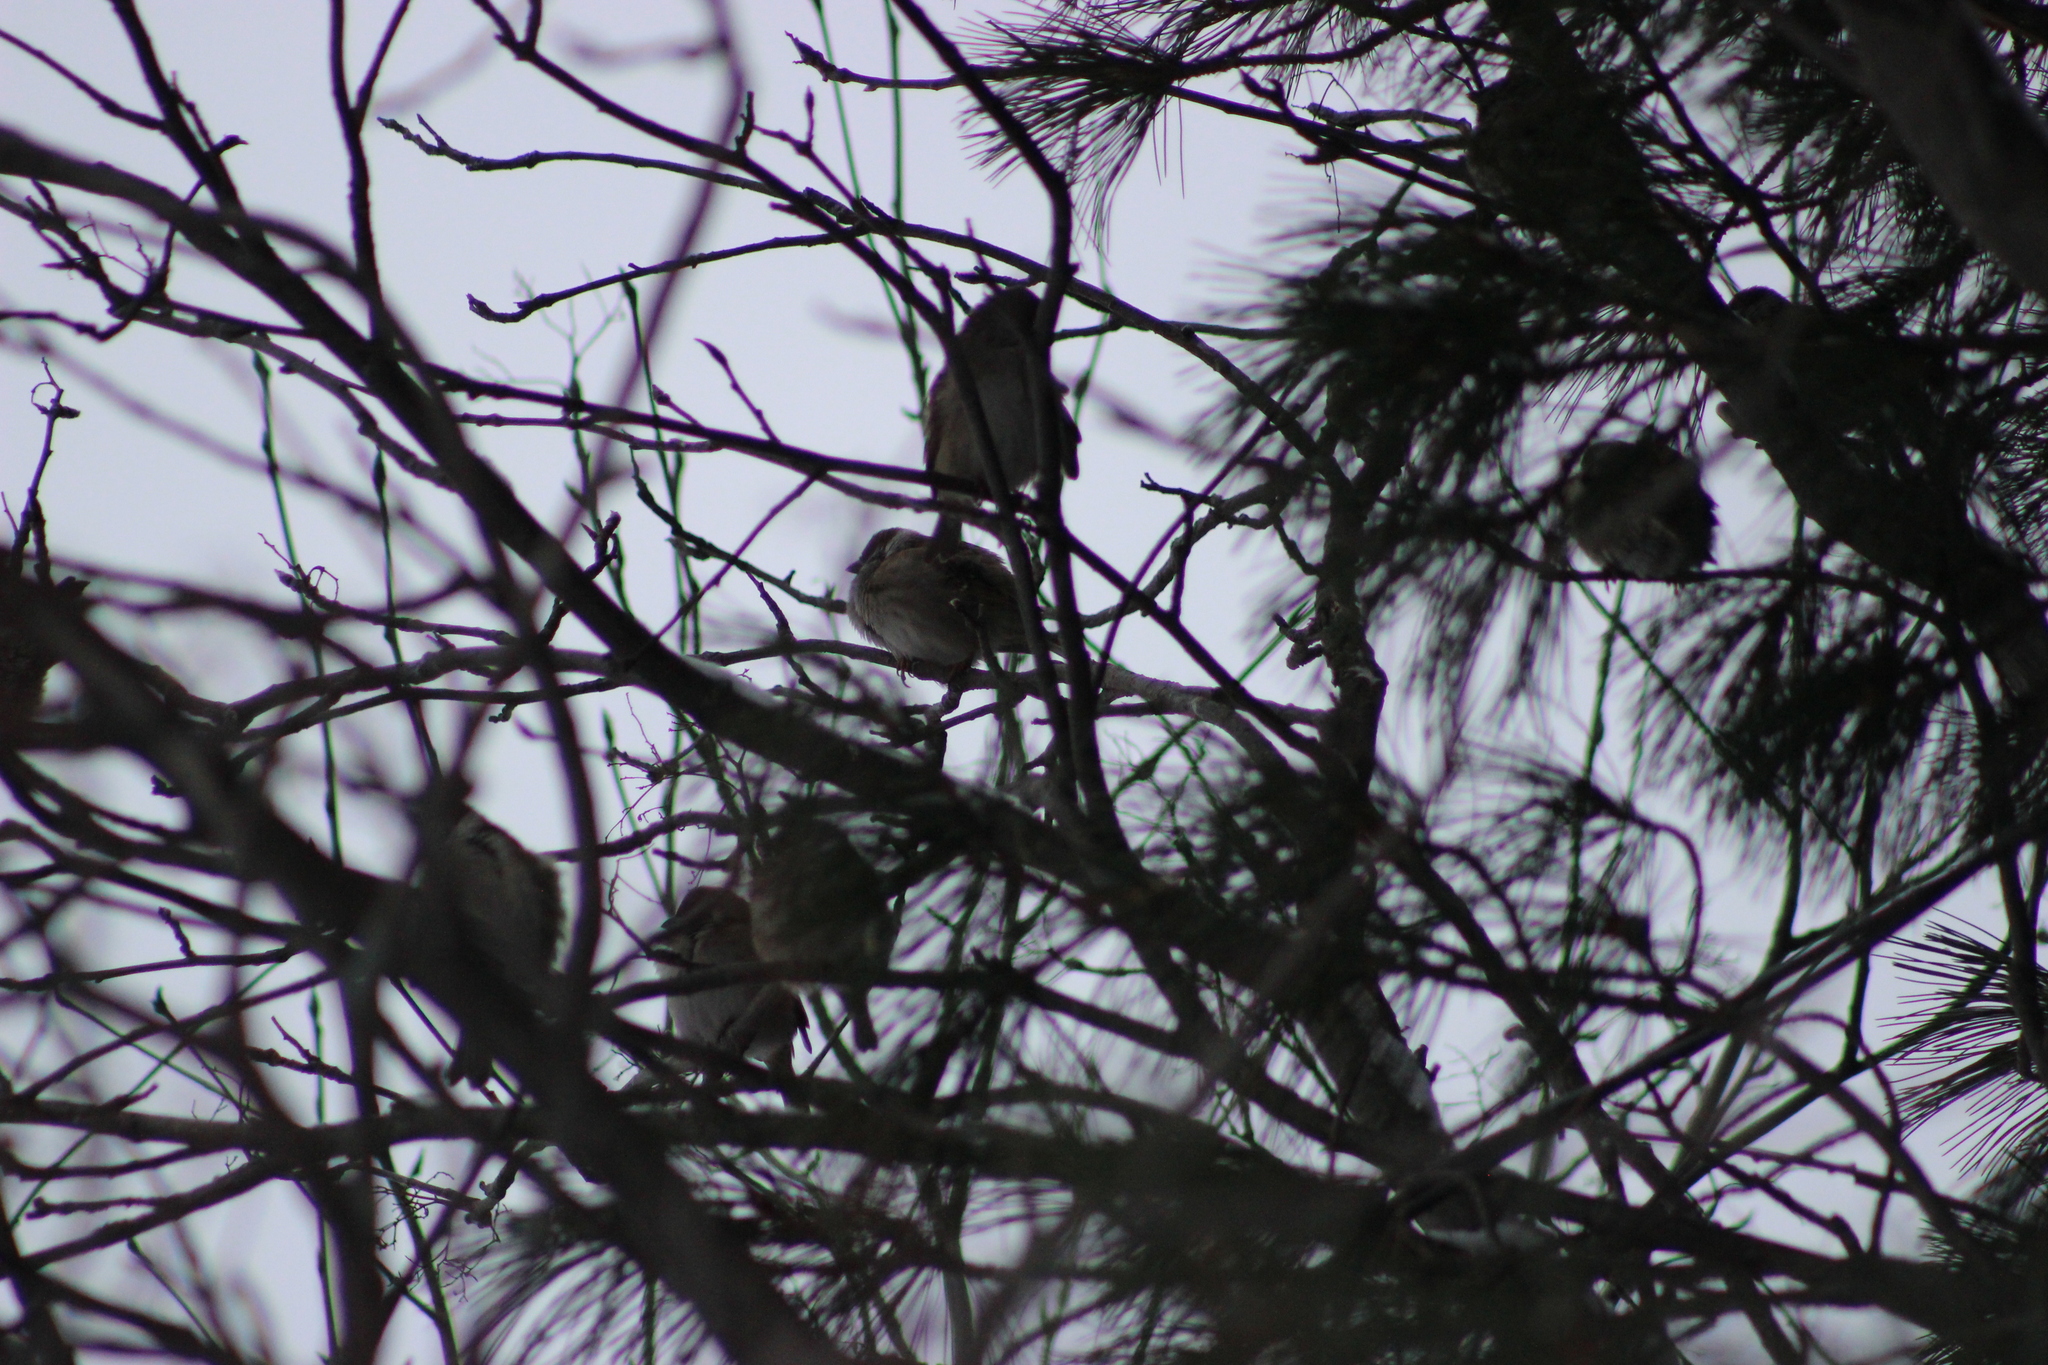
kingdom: Animalia
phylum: Chordata
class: Aves
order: Passeriformes
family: Passeridae
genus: Passer
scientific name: Passer montanus
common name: Eurasian tree sparrow
